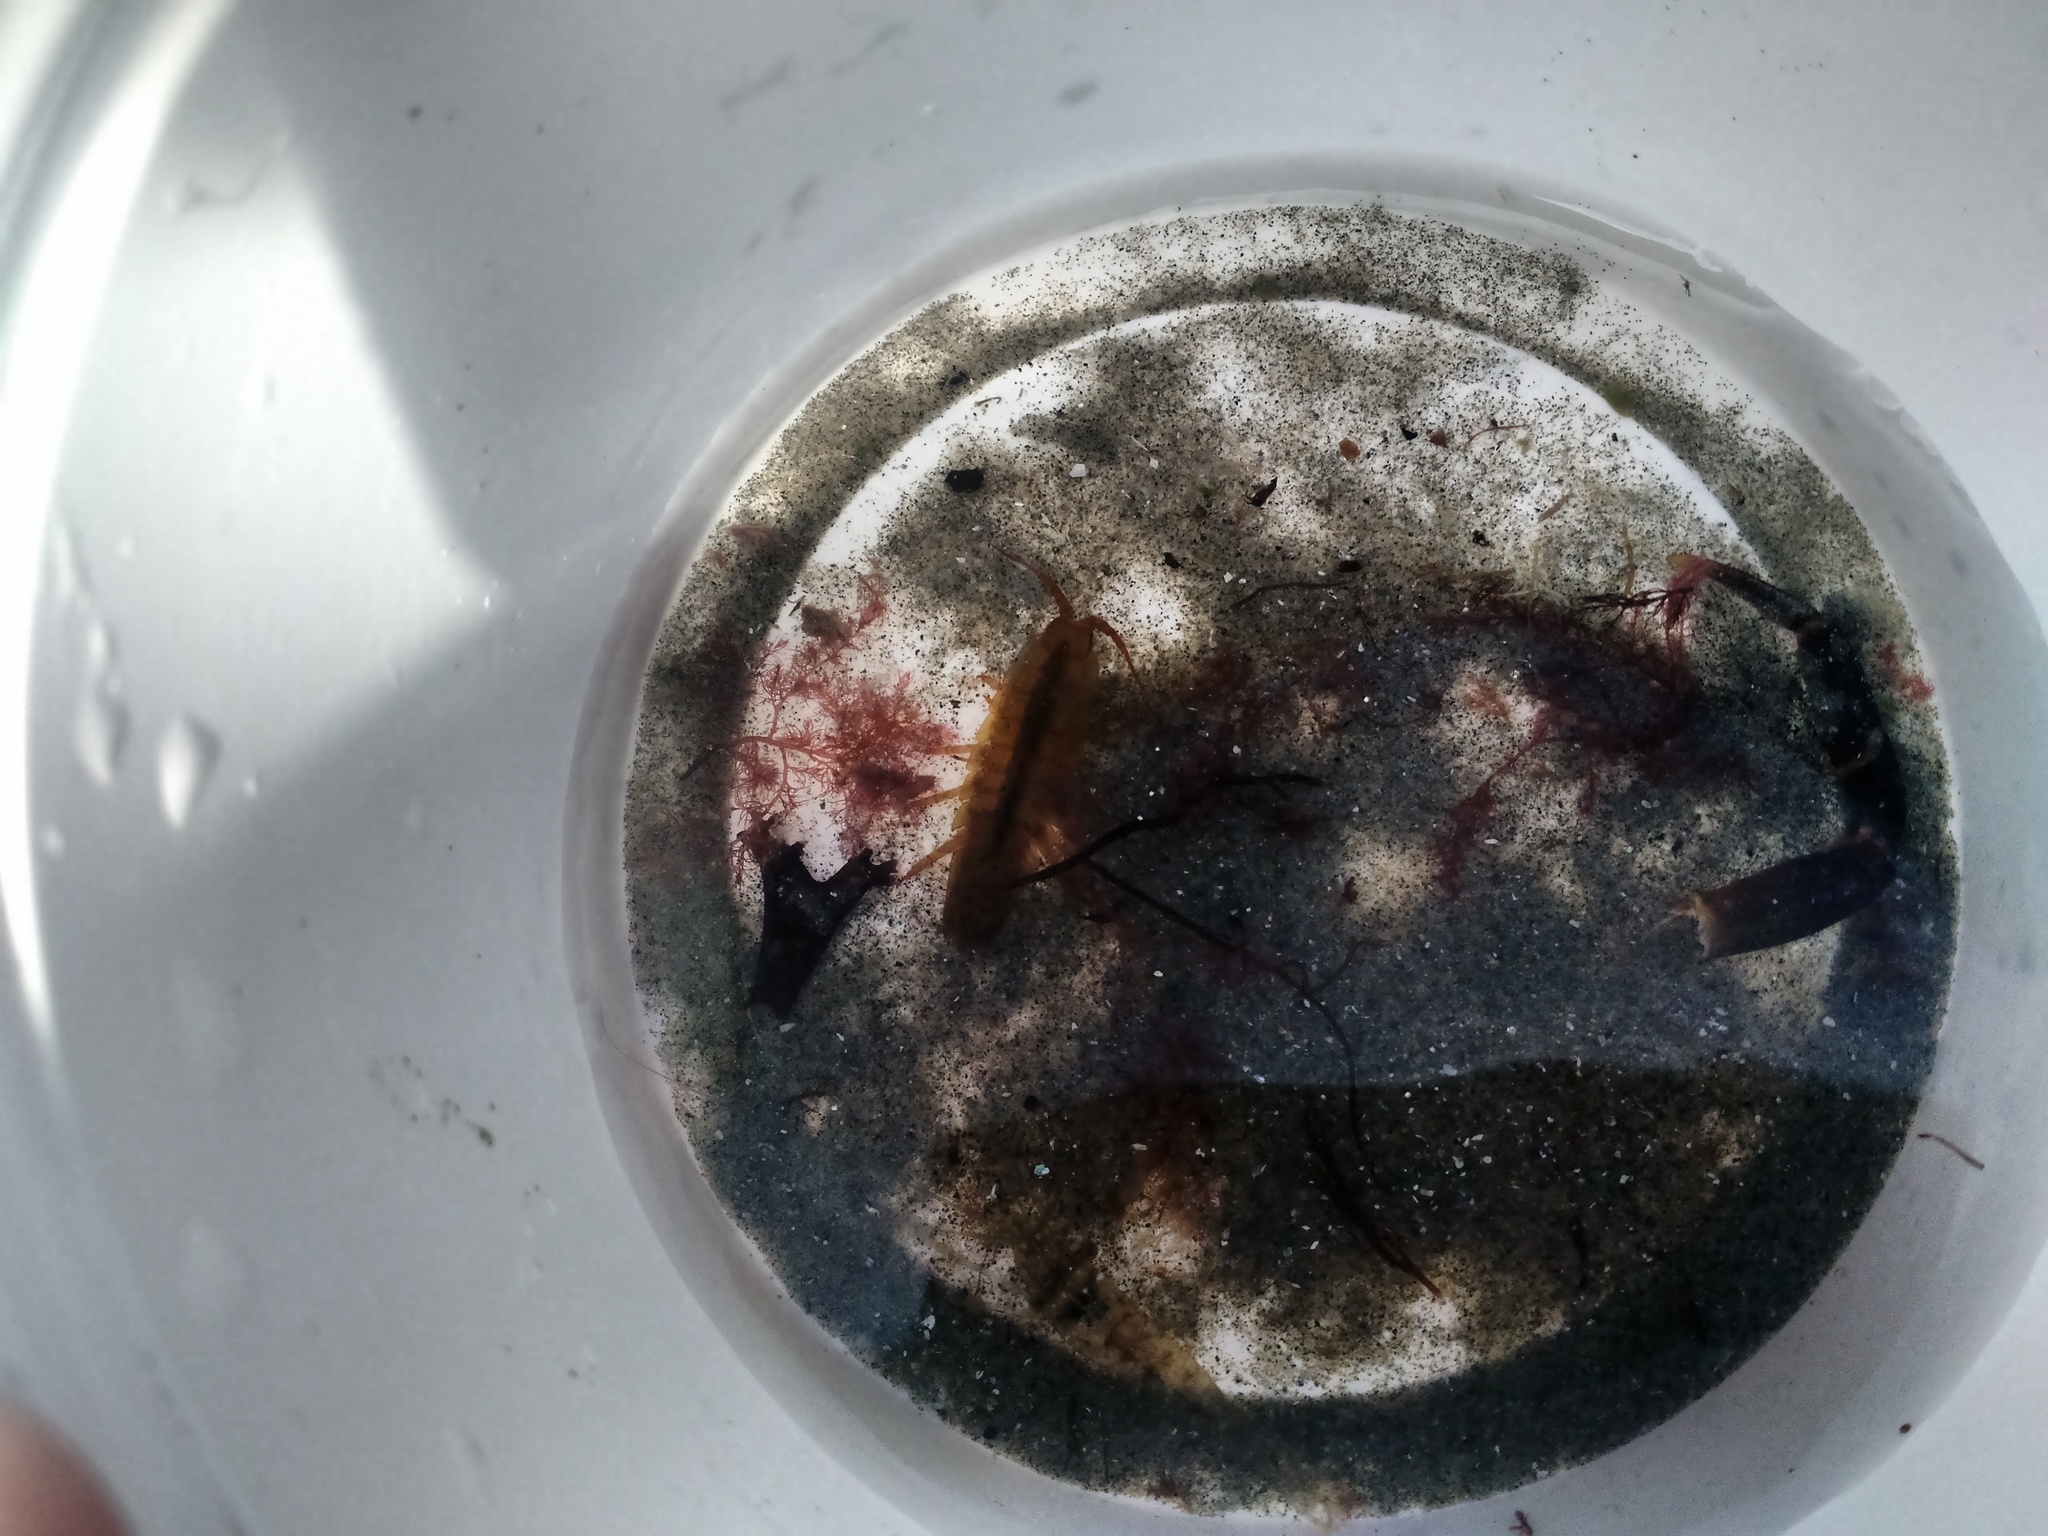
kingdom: Animalia
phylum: Arthropoda
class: Malacostraca
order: Isopoda
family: Idoteidae
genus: Idotea
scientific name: Idotea balthica
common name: Baltic isopod
